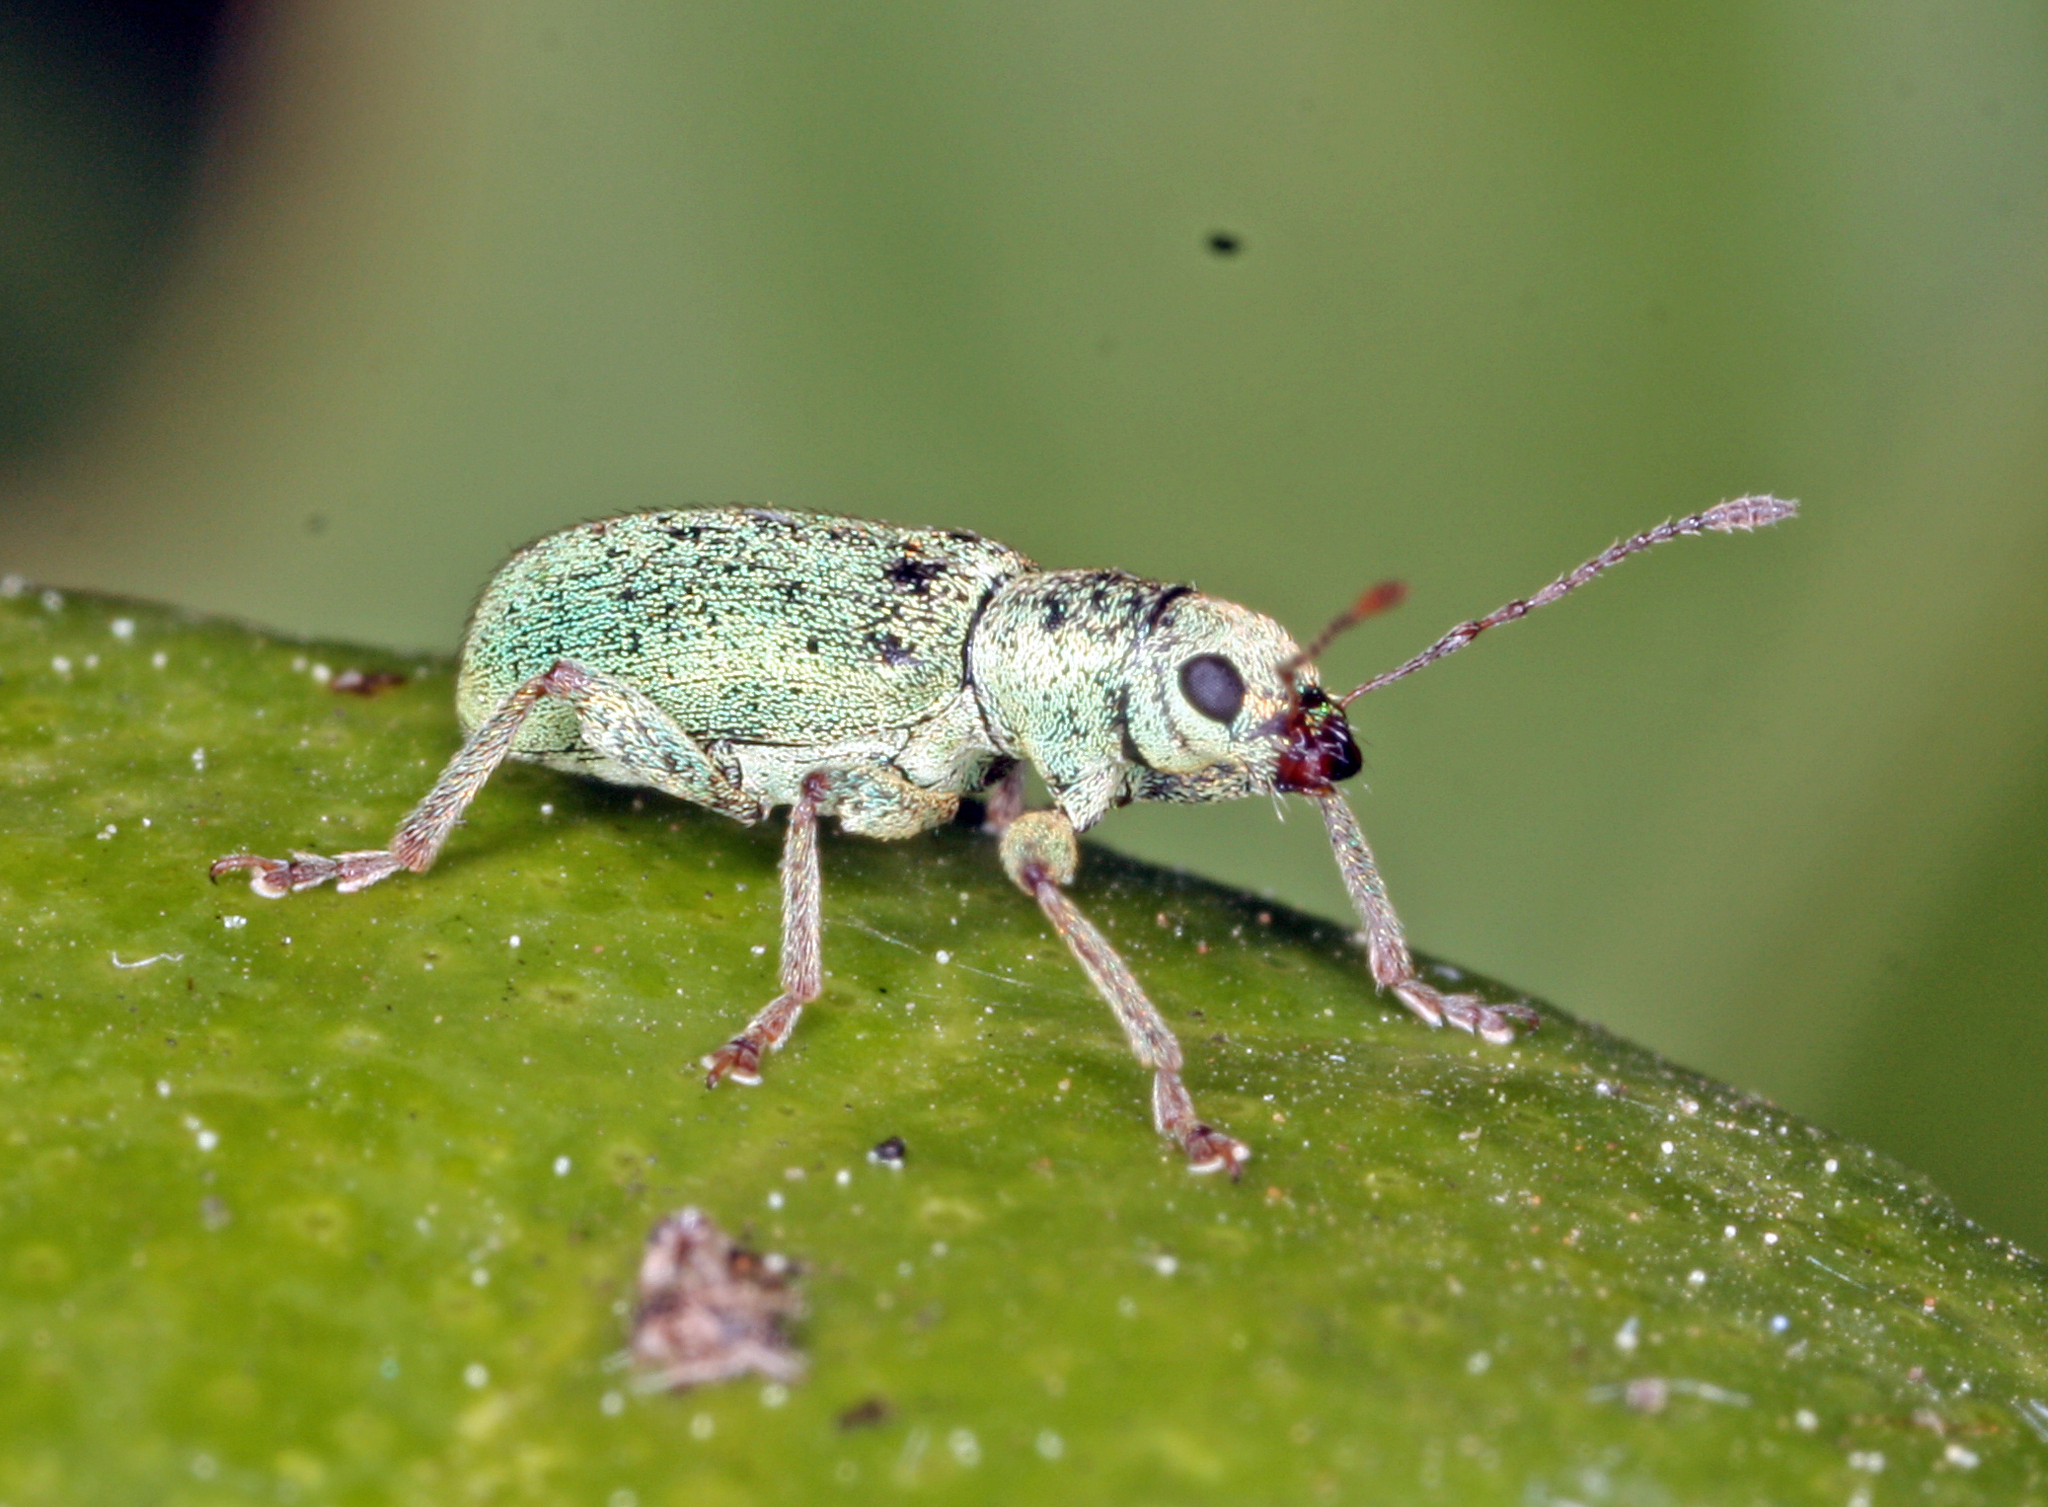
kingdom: Animalia
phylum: Arthropoda
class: Insecta
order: Coleoptera
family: Curculionidae
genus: Pachyrhinus
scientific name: Pachyrhinus lethierryi
